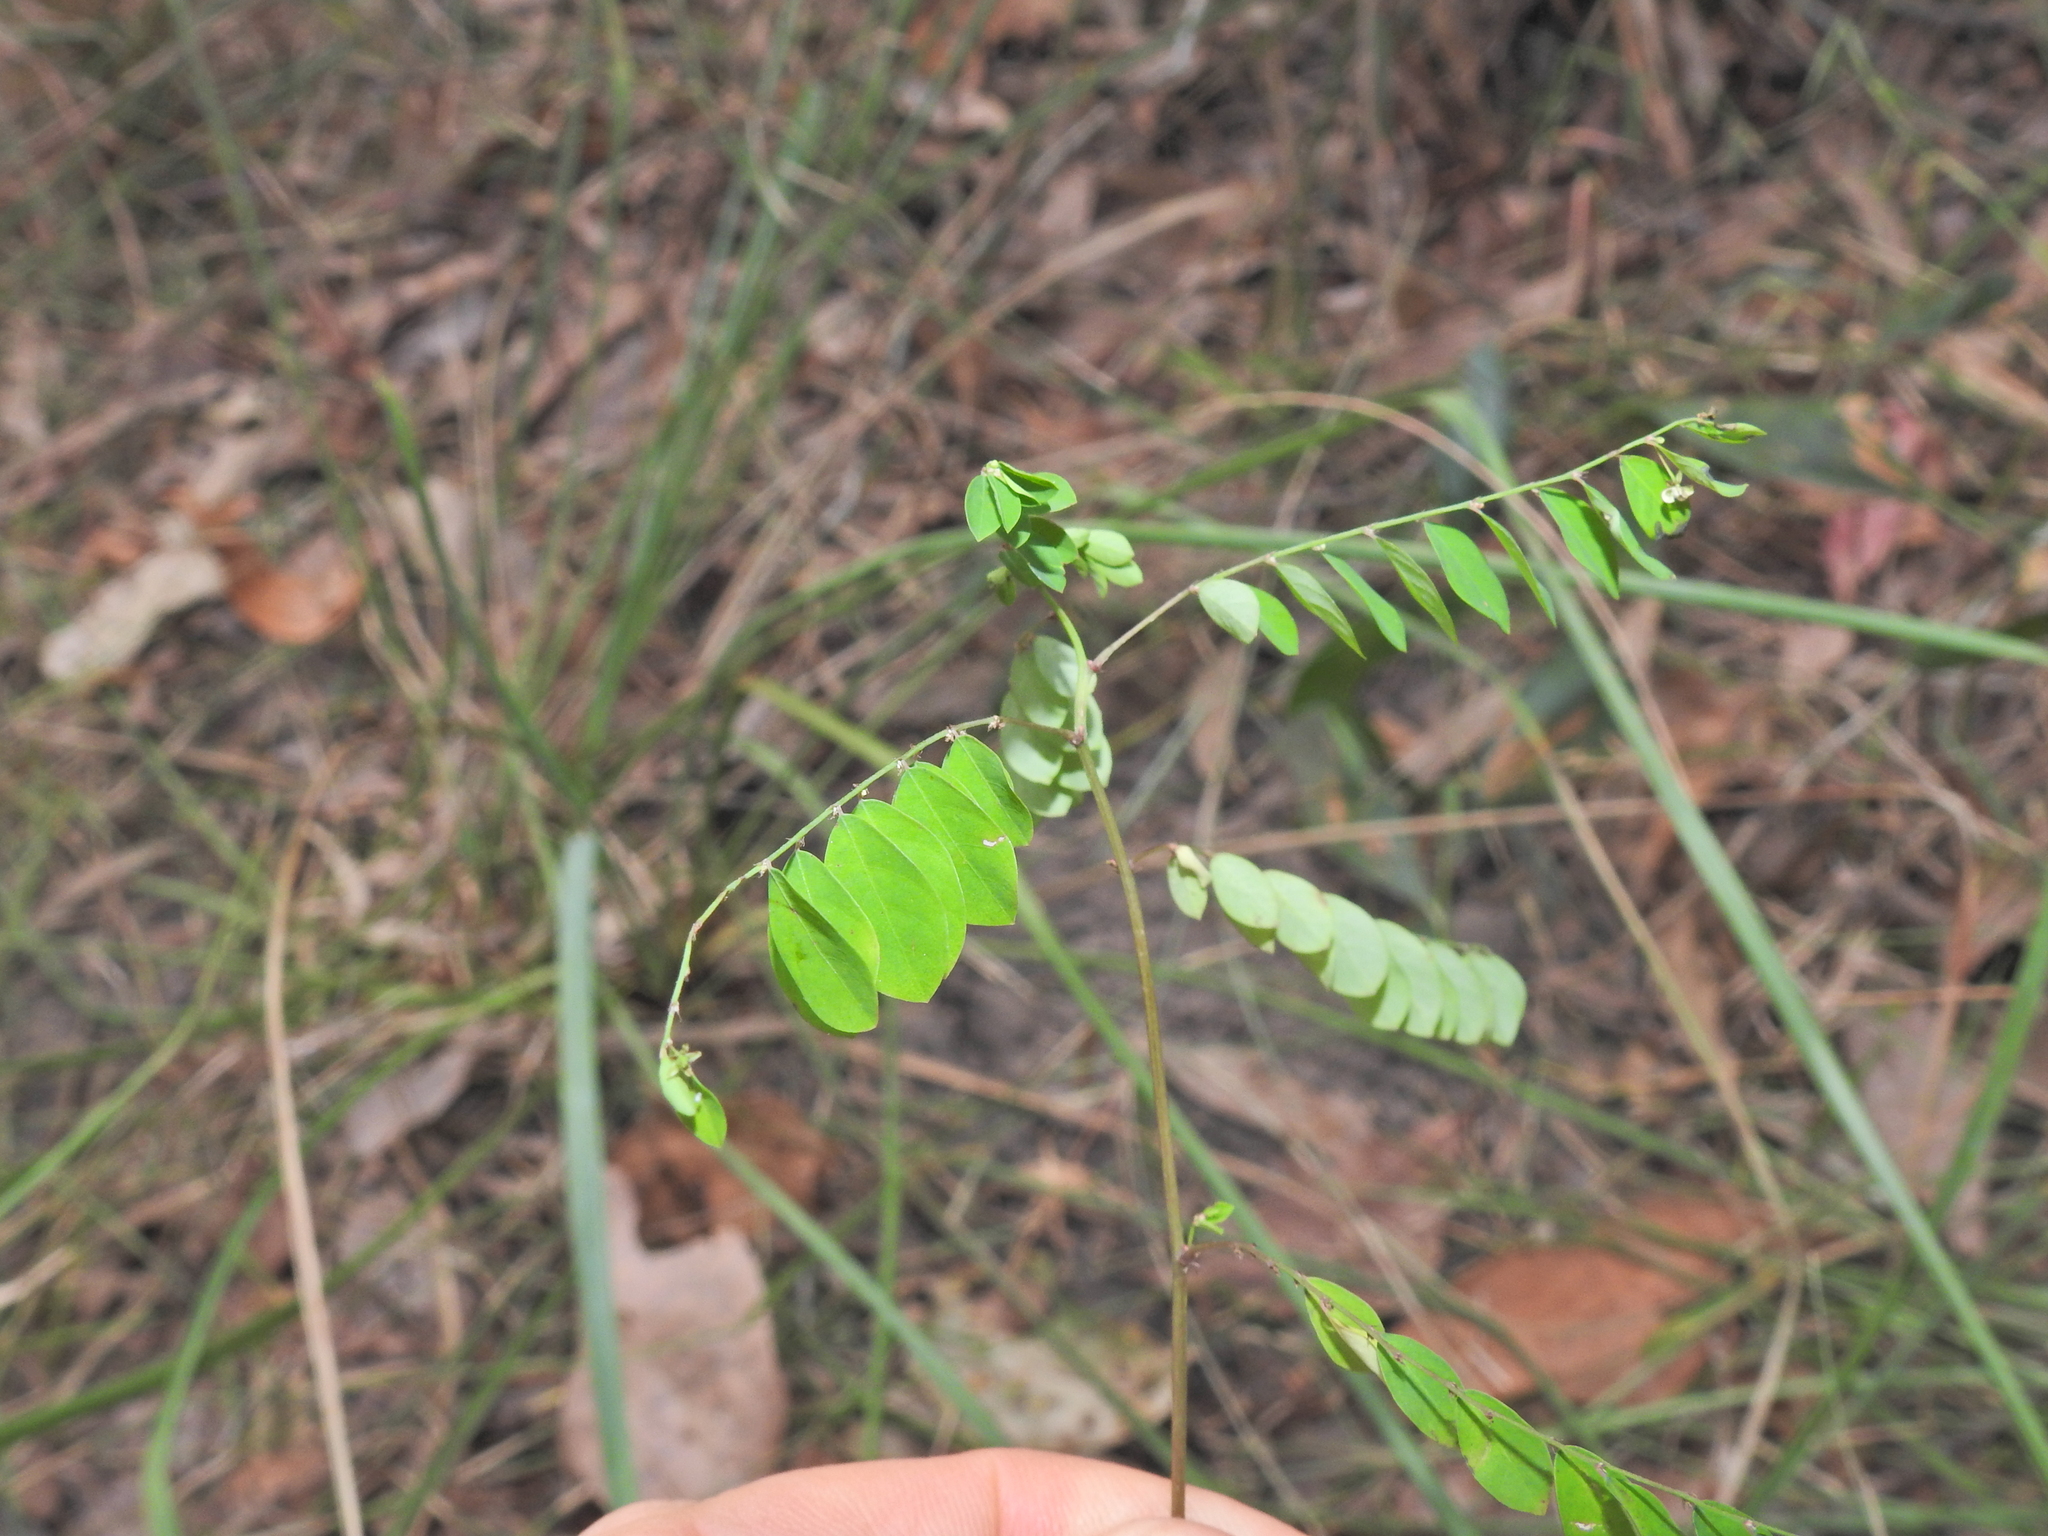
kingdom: Plantae
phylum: Tracheophyta
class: Magnoliopsida
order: Malpighiales
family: Phyllanthaceae
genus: Phyllanthus
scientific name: Phyllanthus tenellus
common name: Mascarene island leaf-flower
